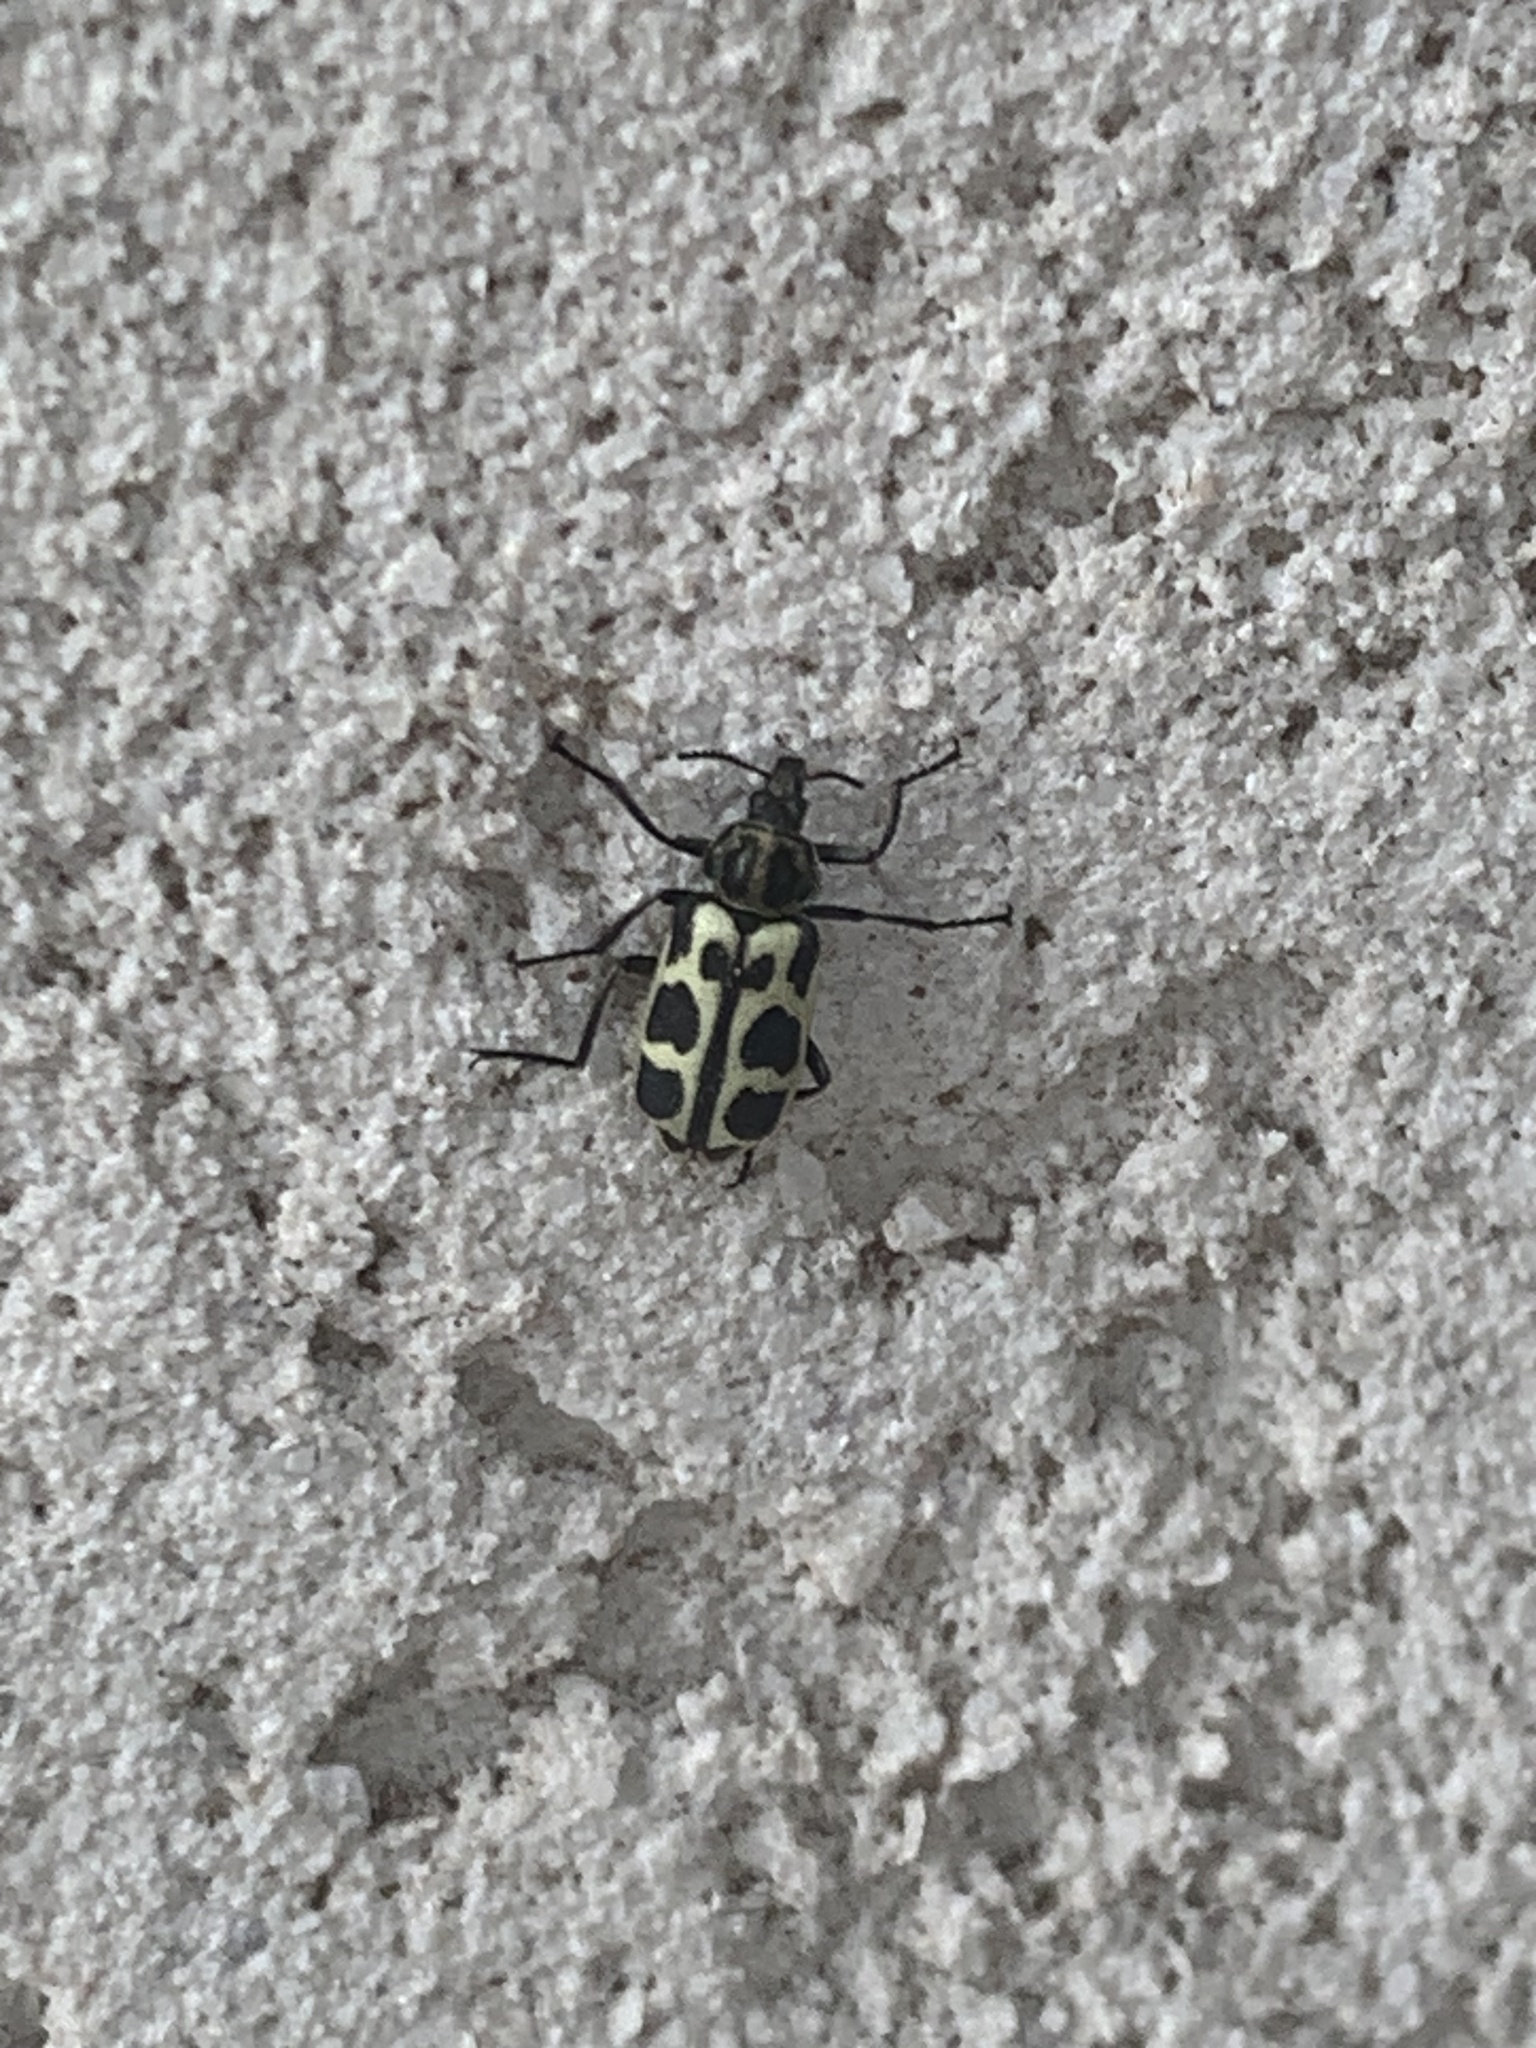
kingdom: Animalia
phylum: Arthropoda
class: Insecta
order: Coleoptera
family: Melyridae
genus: Astylus
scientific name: Astylus atromaculatus
